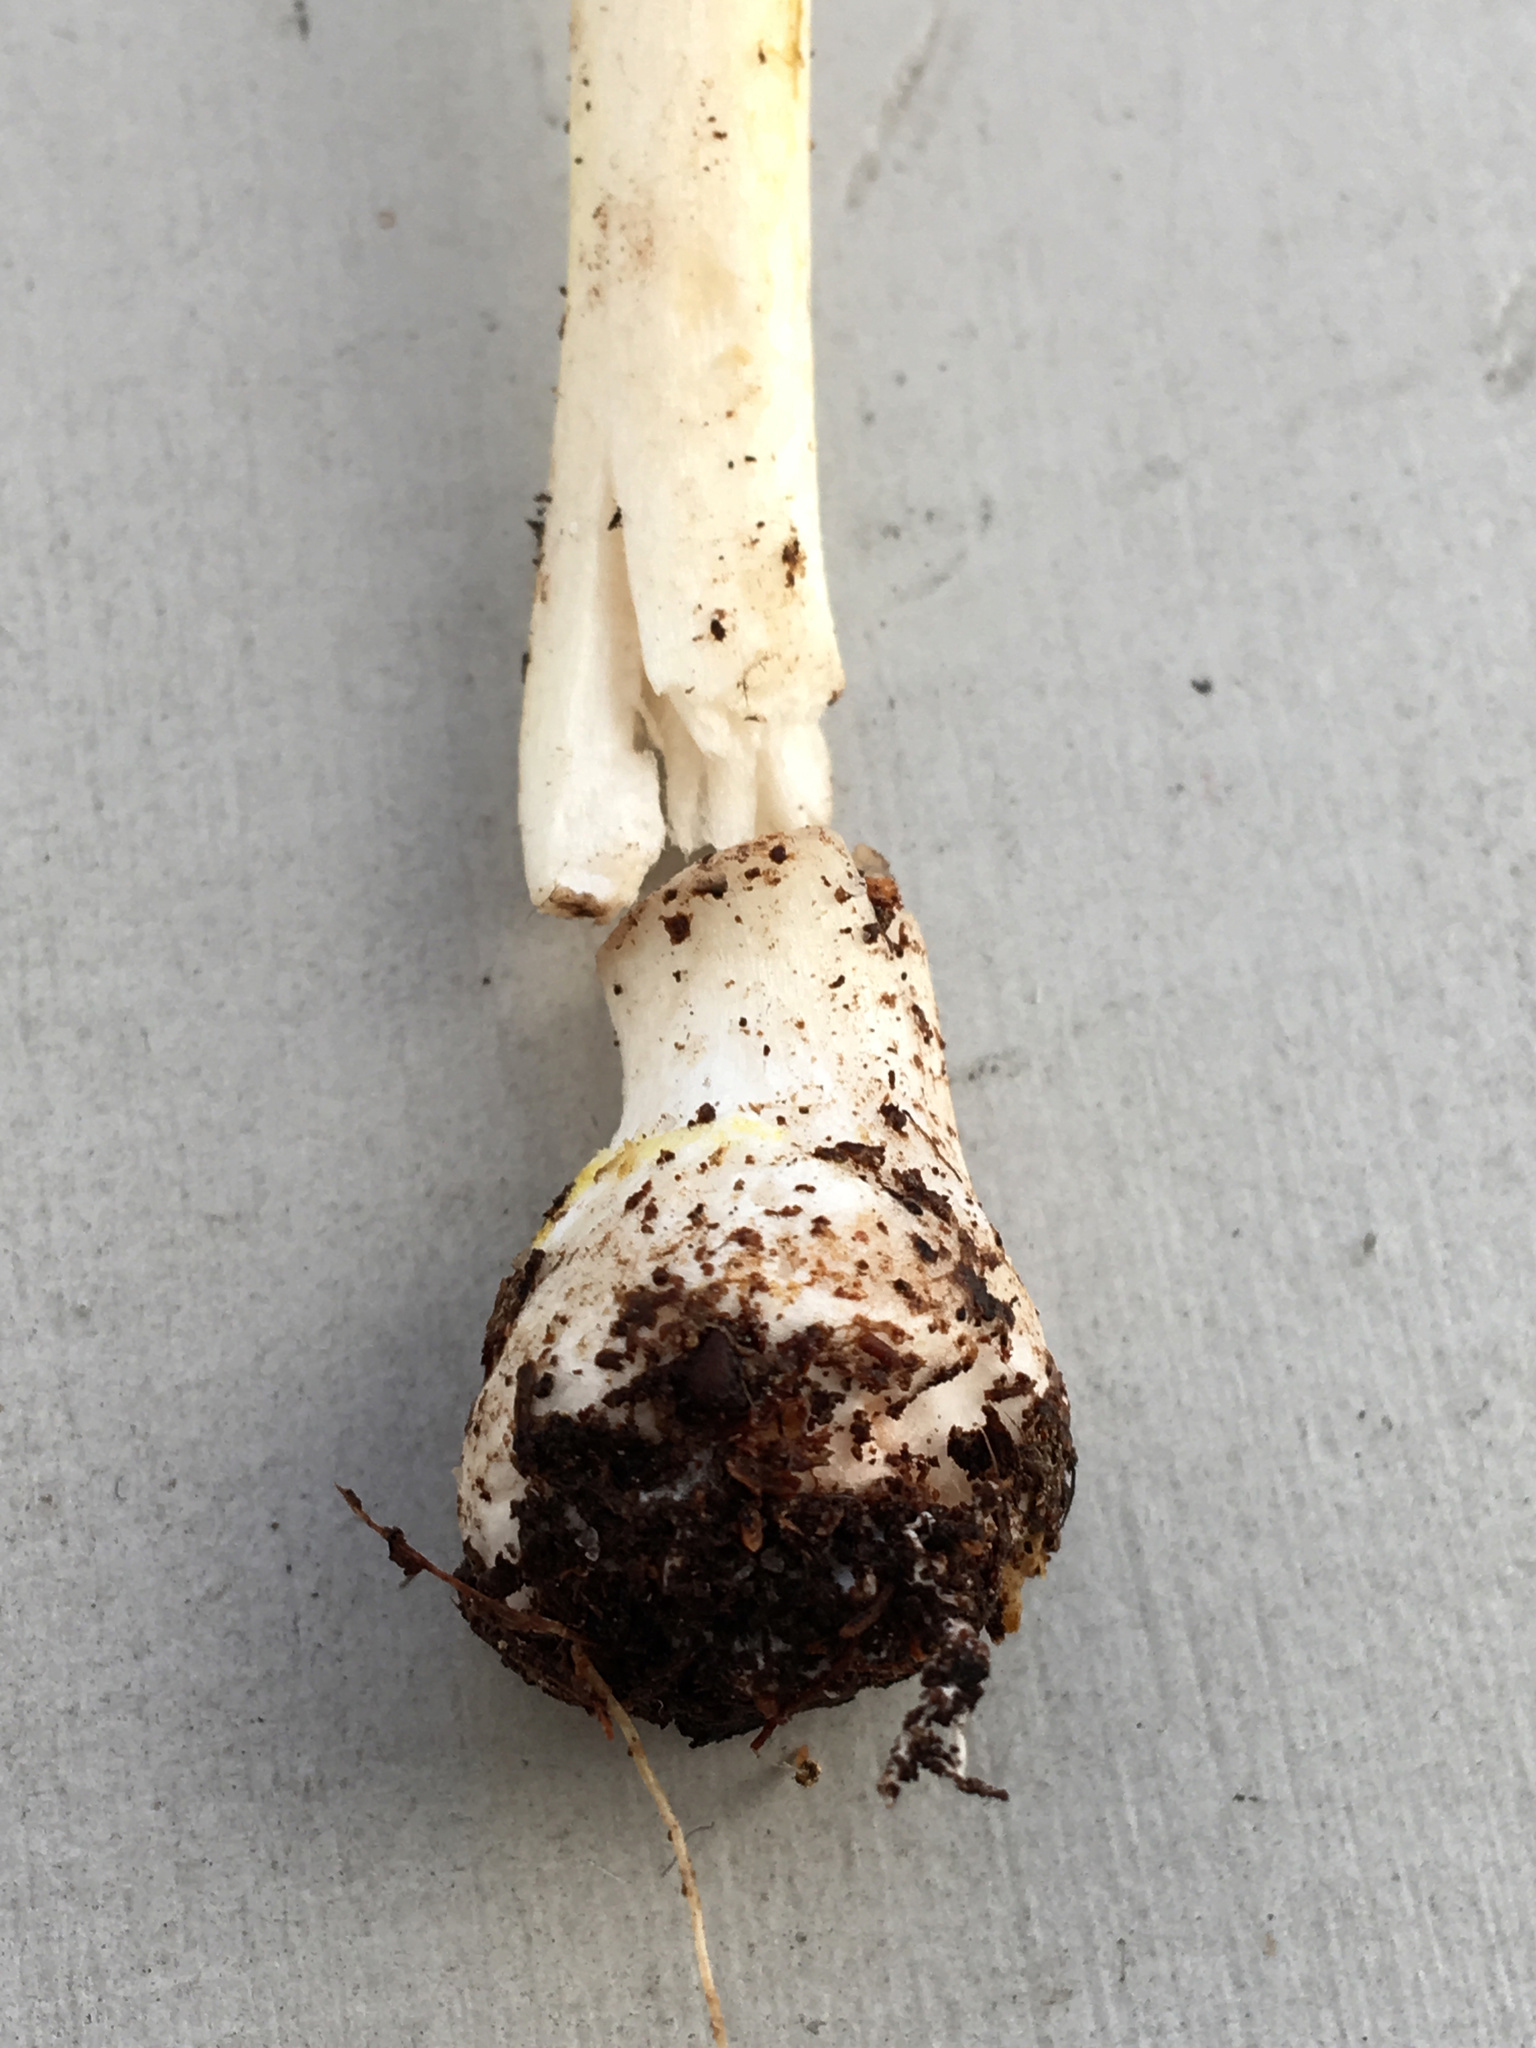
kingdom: Fungi
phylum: Basidiomycota
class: Agaricomycetes
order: Agaricales
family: Amanitaceae
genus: Amanita
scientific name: Amanita elongata
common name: Peck's yellow dust amanita
